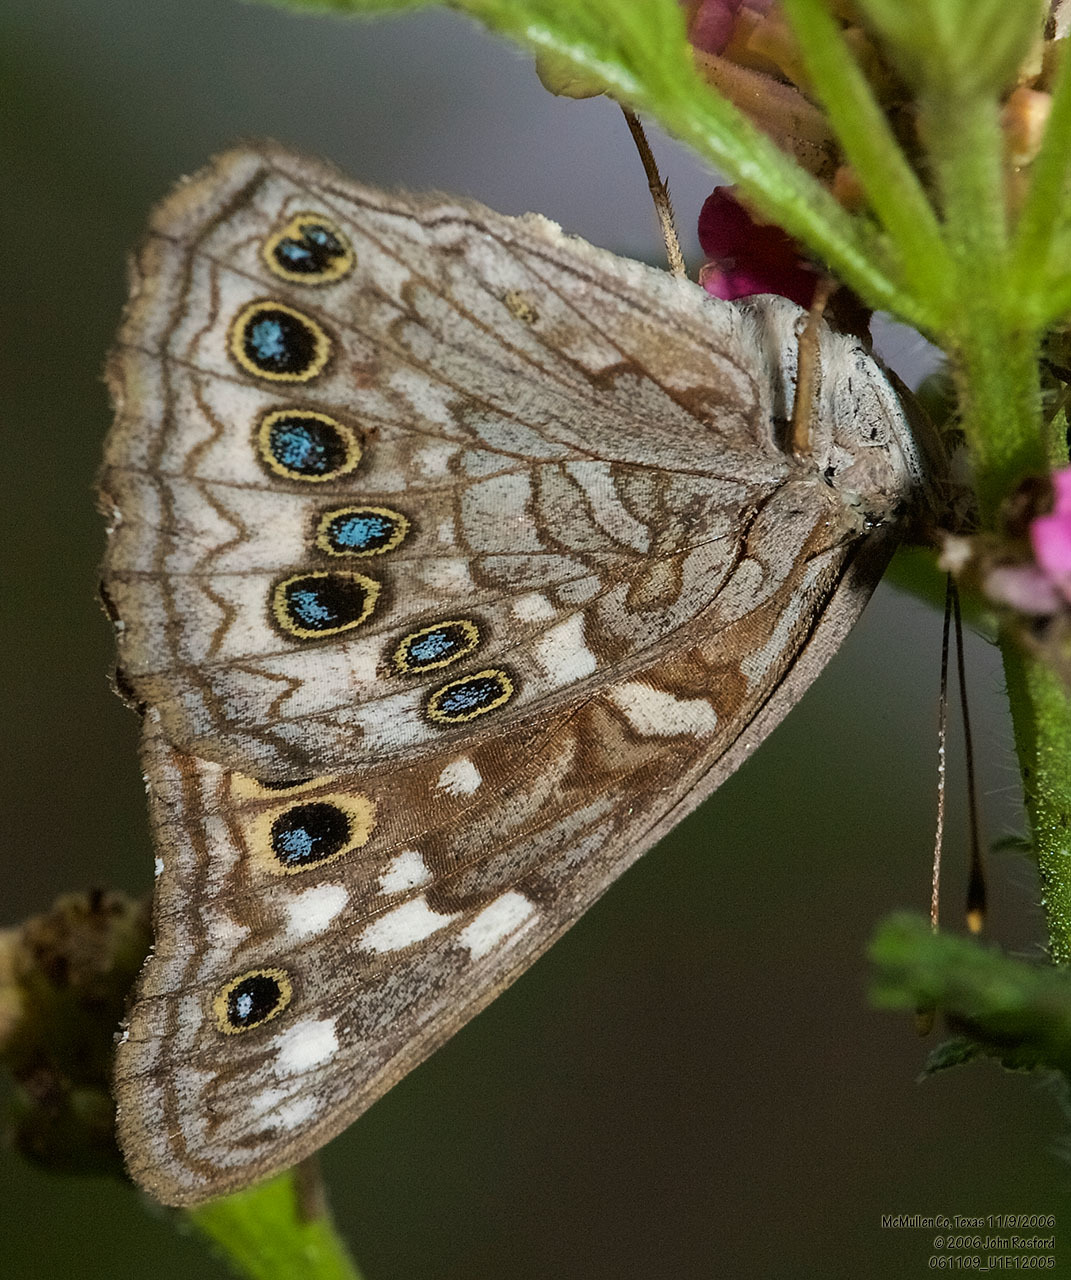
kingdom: Animalia
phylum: Arthropoda
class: Insecta
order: Lepidoptera
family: Nymphalidae
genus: Asterocampa
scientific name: Asterocampa leilia
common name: Empress leilia
